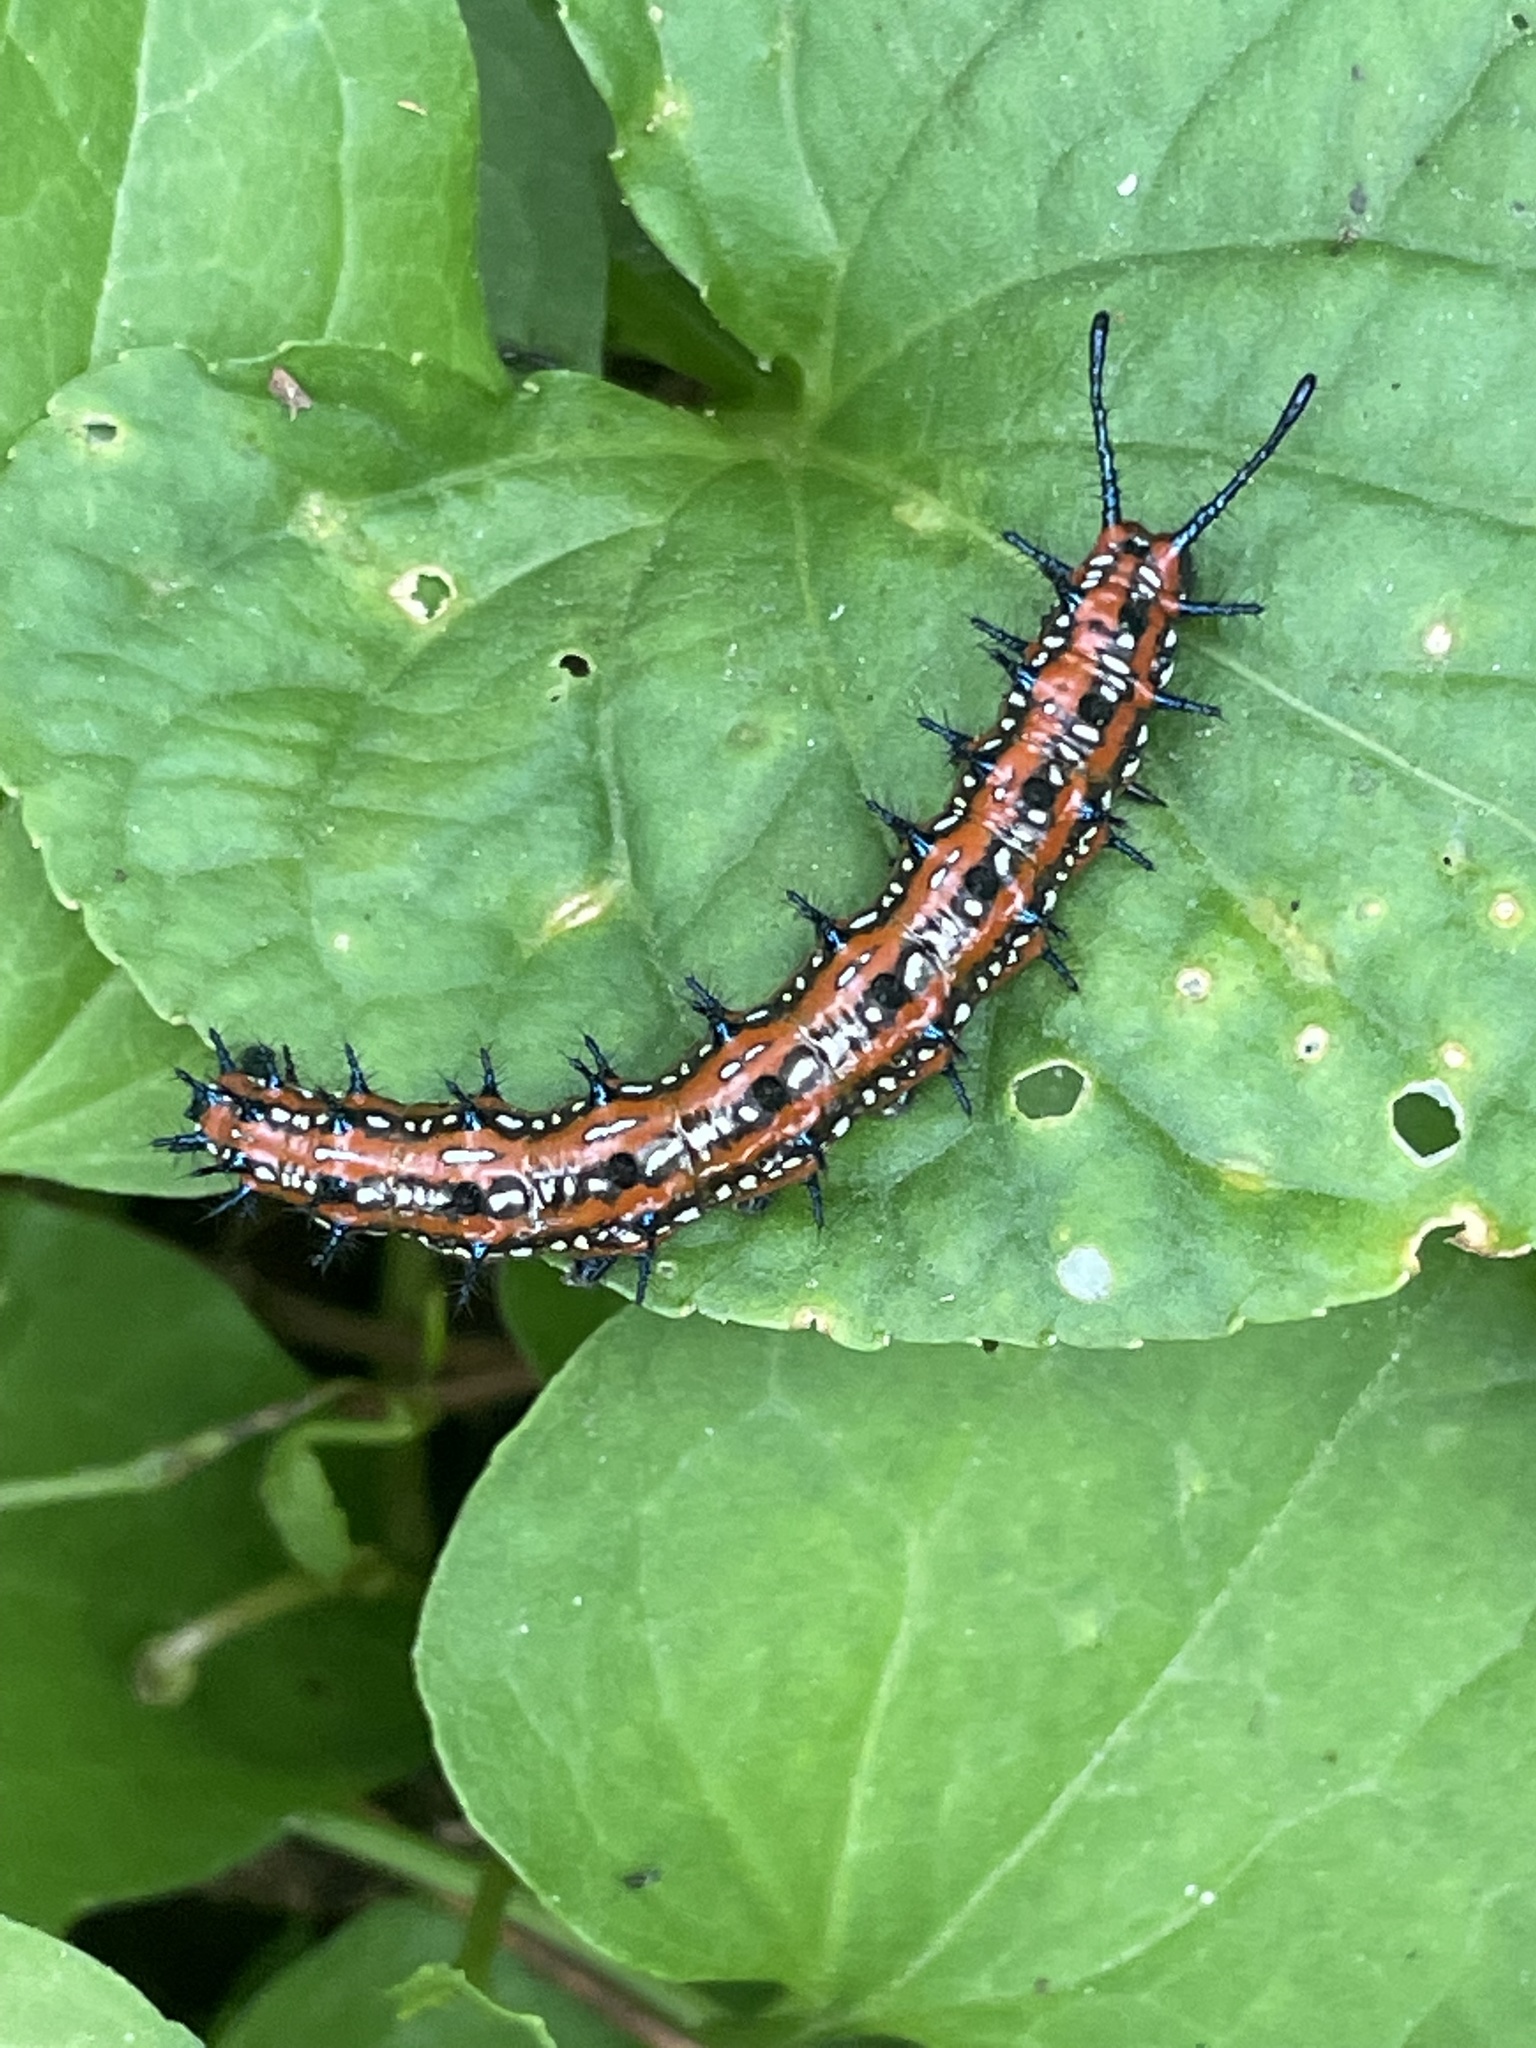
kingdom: Animalia
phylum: Arthropoda
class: Insecta
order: Lepidoptera
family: Nymphalidae
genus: Euptoieta
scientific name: Euptoieta claudia
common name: Variegated fritillary
